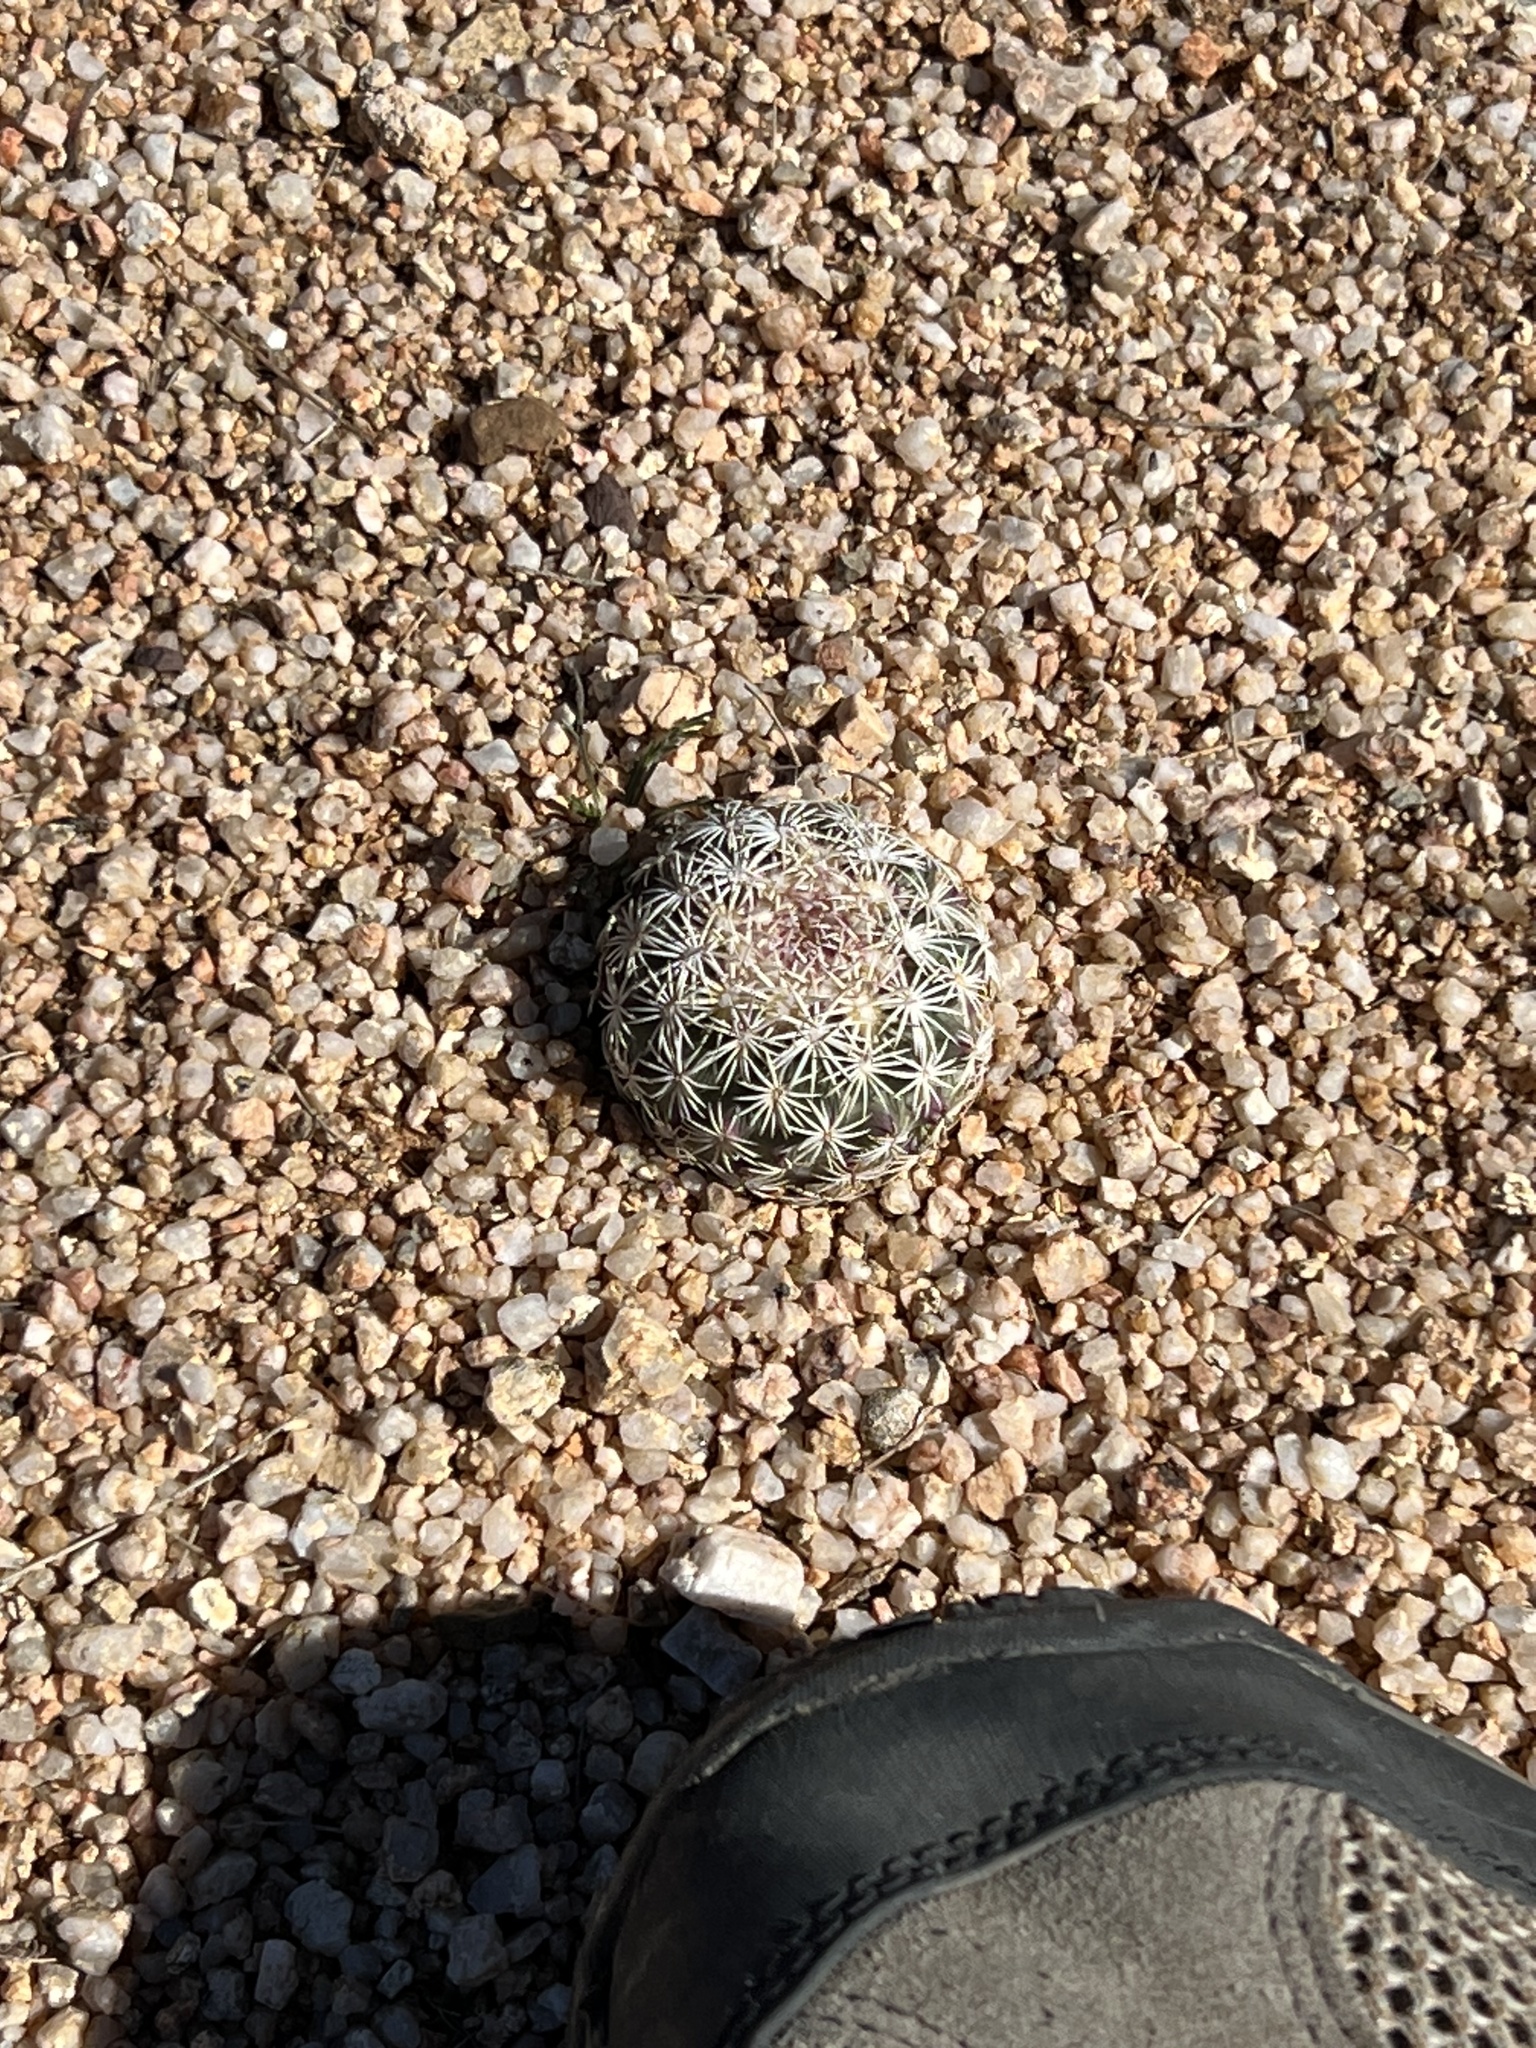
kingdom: Plantae
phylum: Tracheophyta
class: Magnoliopsida
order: Caryophyllales
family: Cactaceae
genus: Sclerocactus
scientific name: Sclerocactus johnsonii
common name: Eight-spine fishhook cactus
